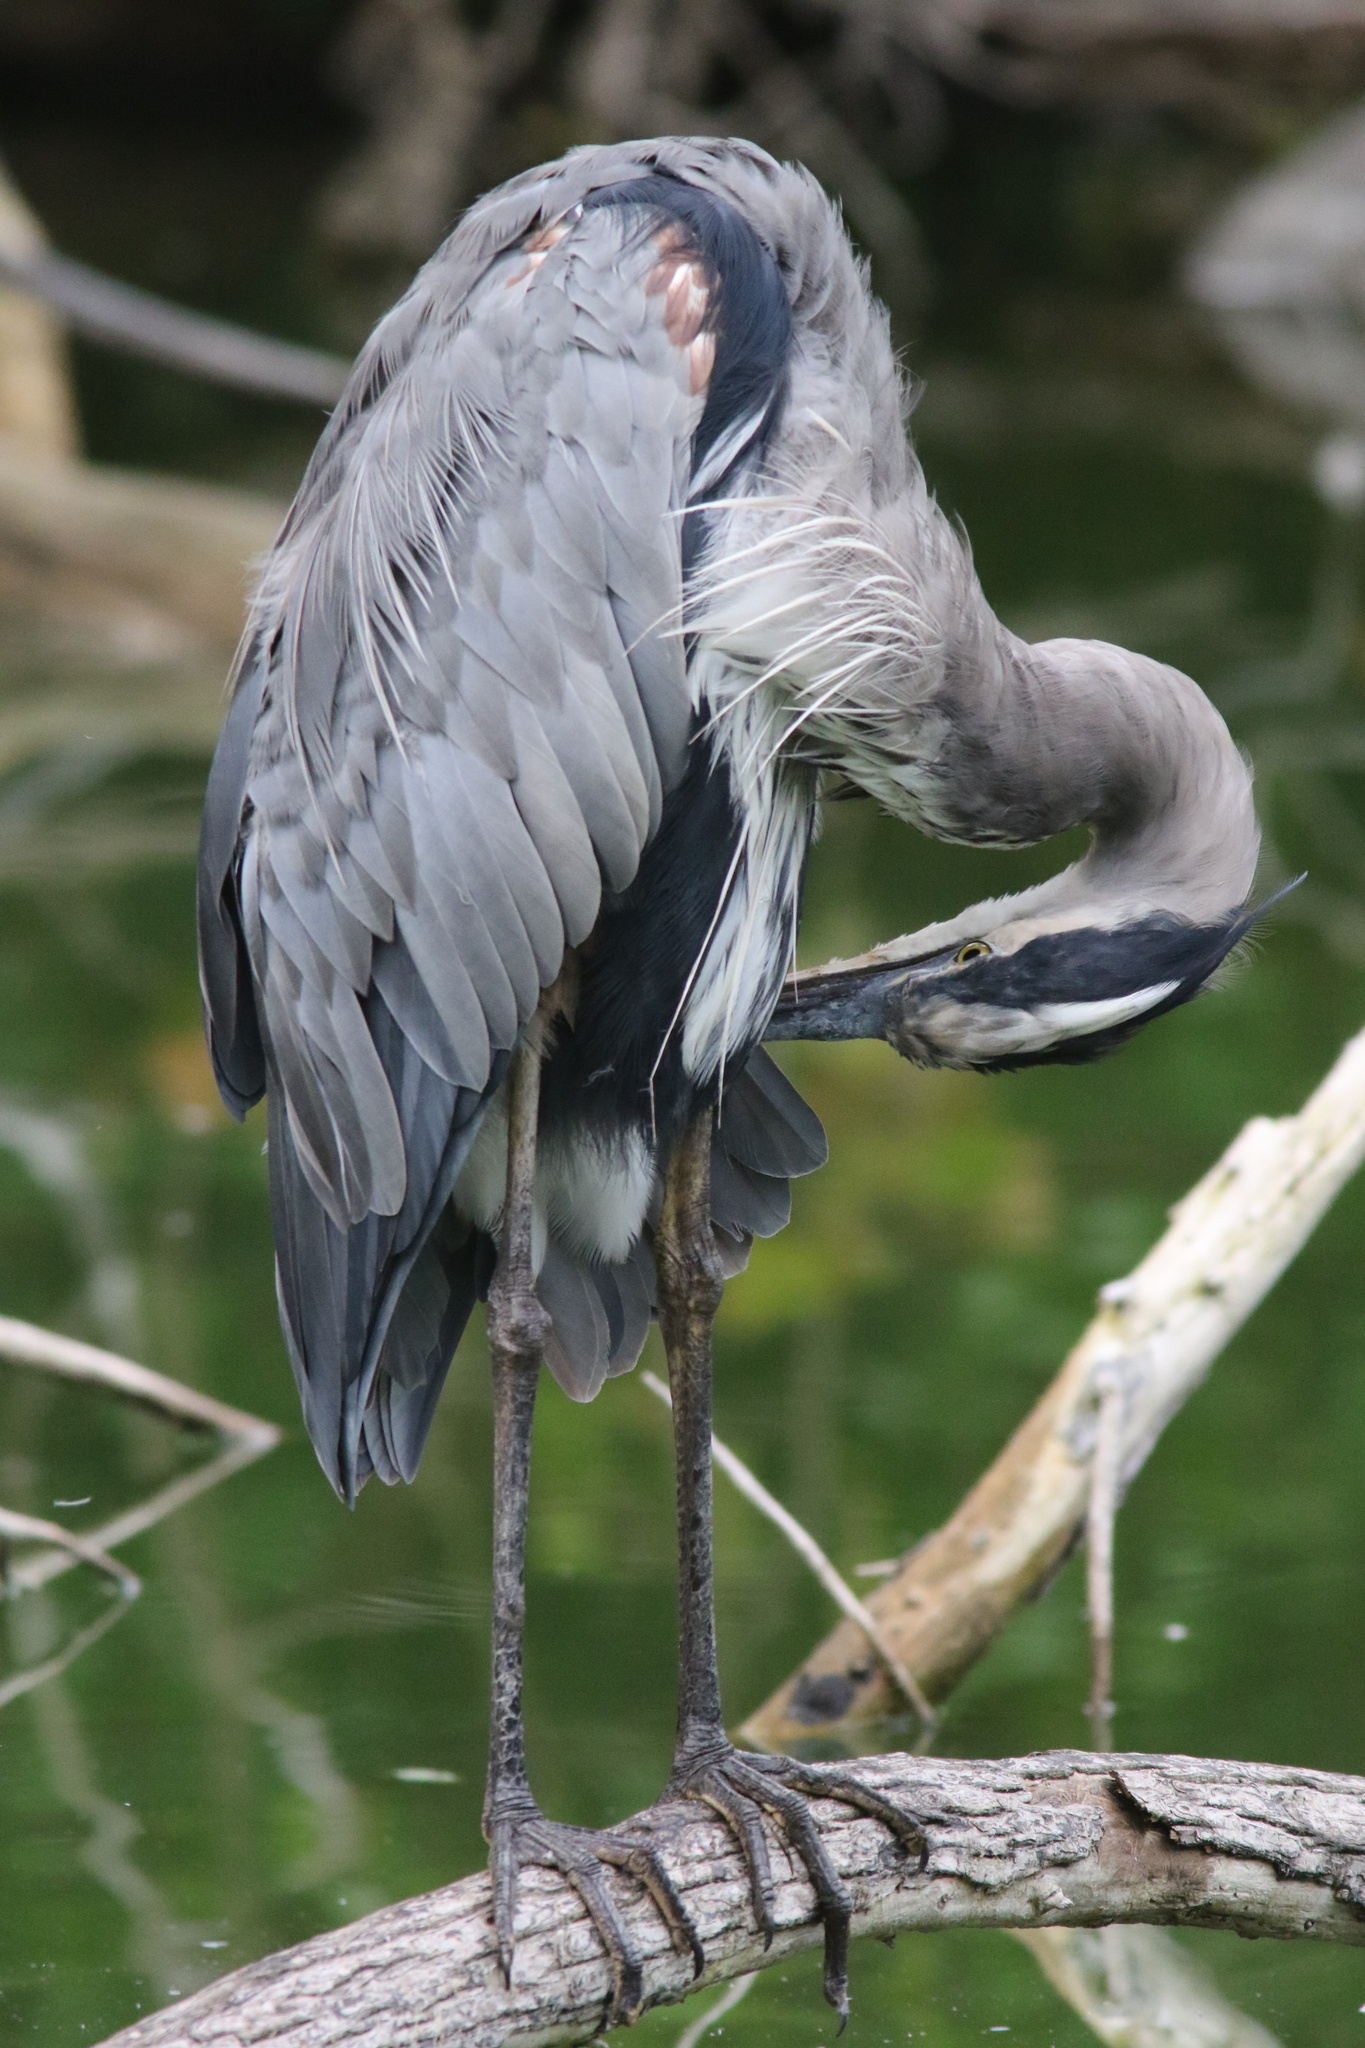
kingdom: Animalia
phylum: Chordata
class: Aves
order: Pelecaniformes
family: Ardeidae
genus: Ardea
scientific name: Ardea herodias
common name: Great blue heron
